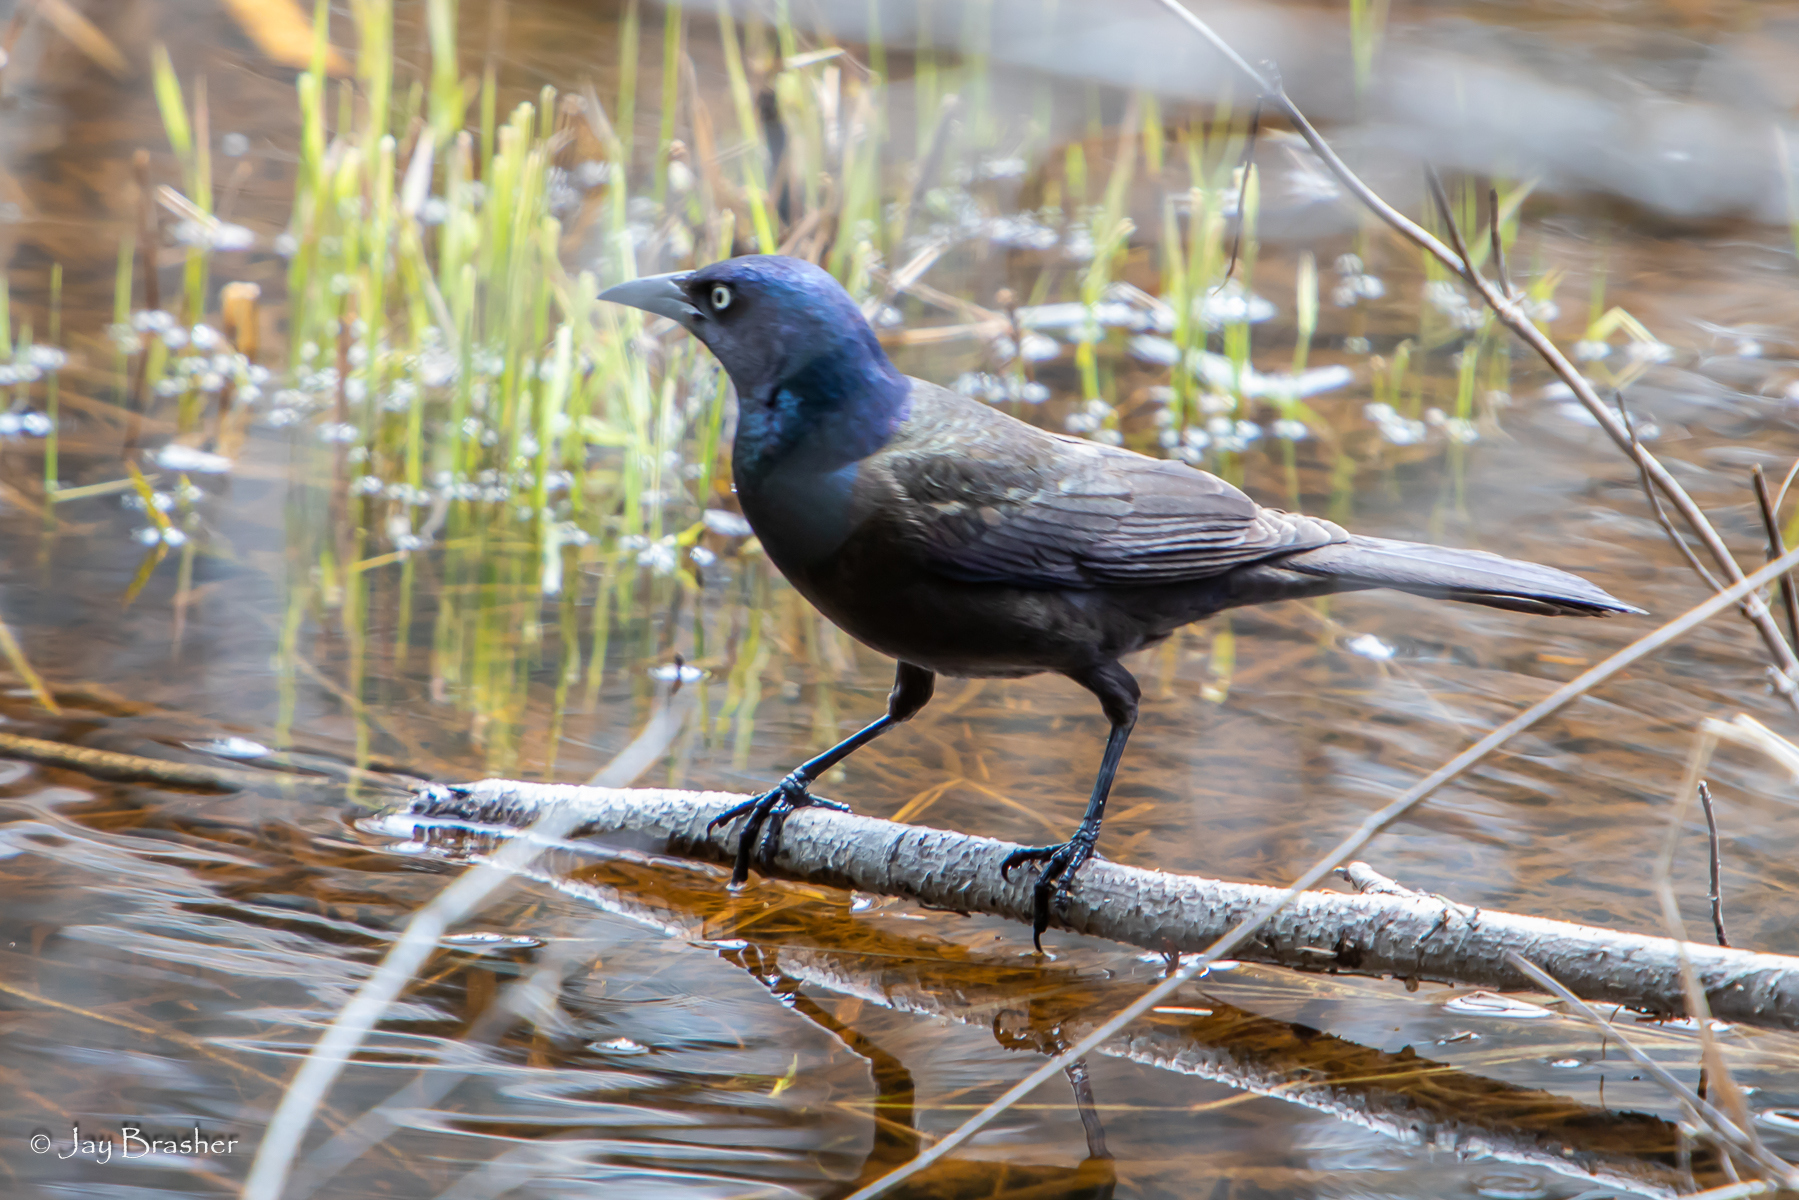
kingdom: Animalia
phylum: Chordata
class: Aves
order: Passeriformes
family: Icteridae
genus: Quiscalus
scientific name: Quiscalus quiscula
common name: Common grackle
